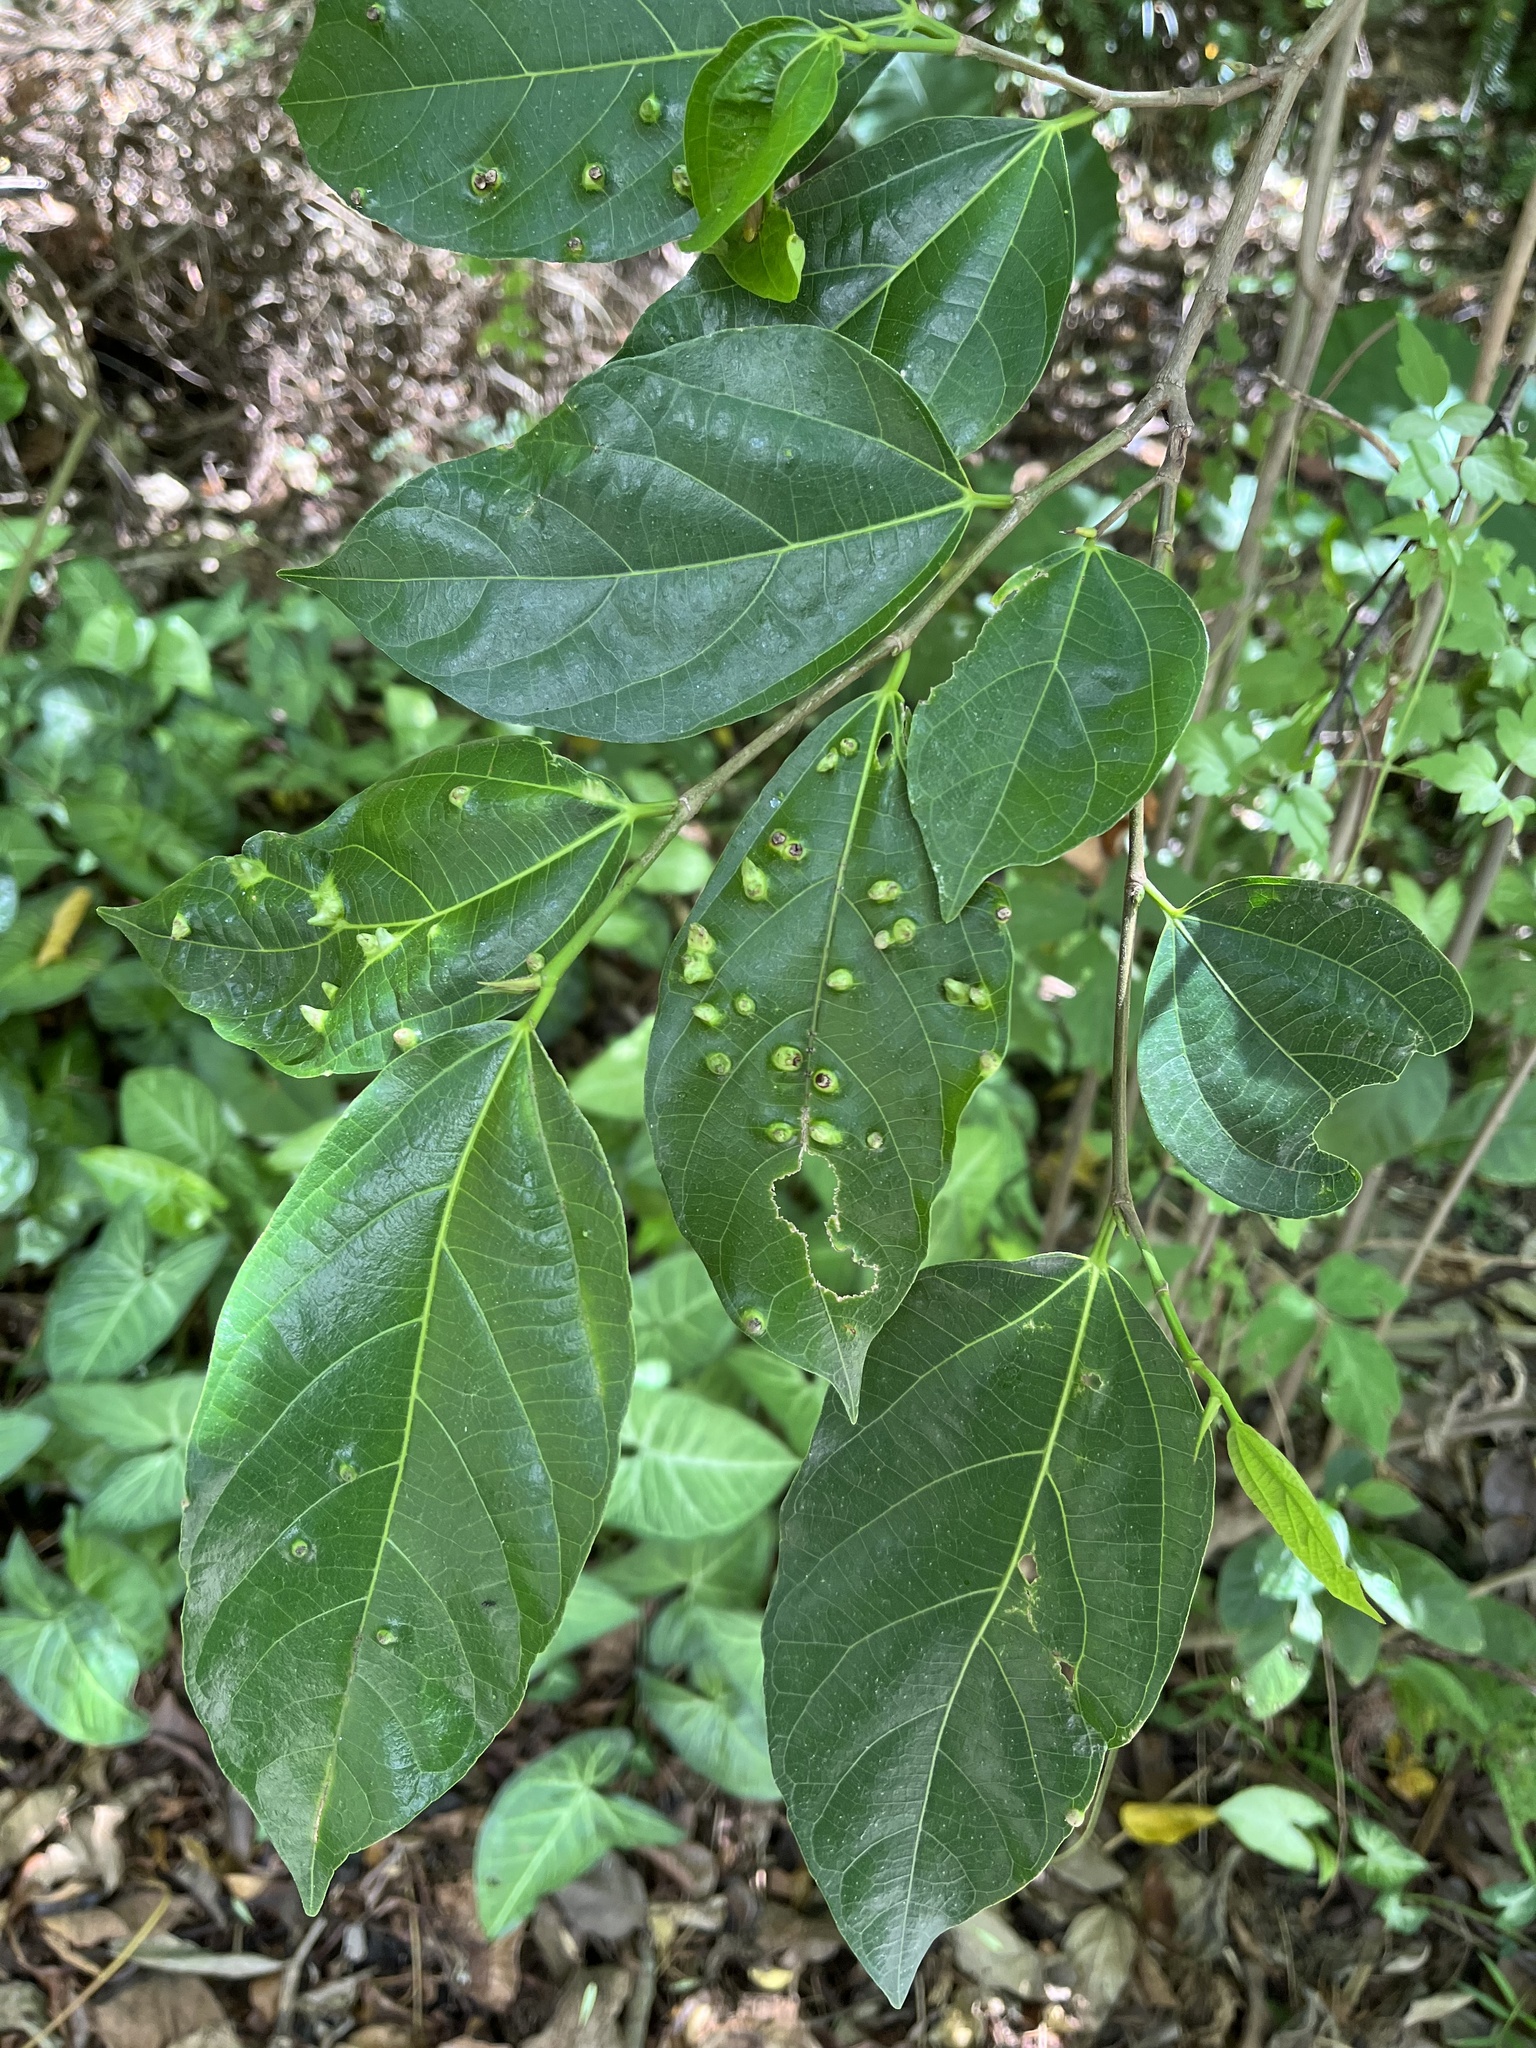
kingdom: Plantae
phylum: Tracheophyta
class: Magnoliopsida
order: Rosales
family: Moraceae
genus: Ficus
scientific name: Ficus ampelos
